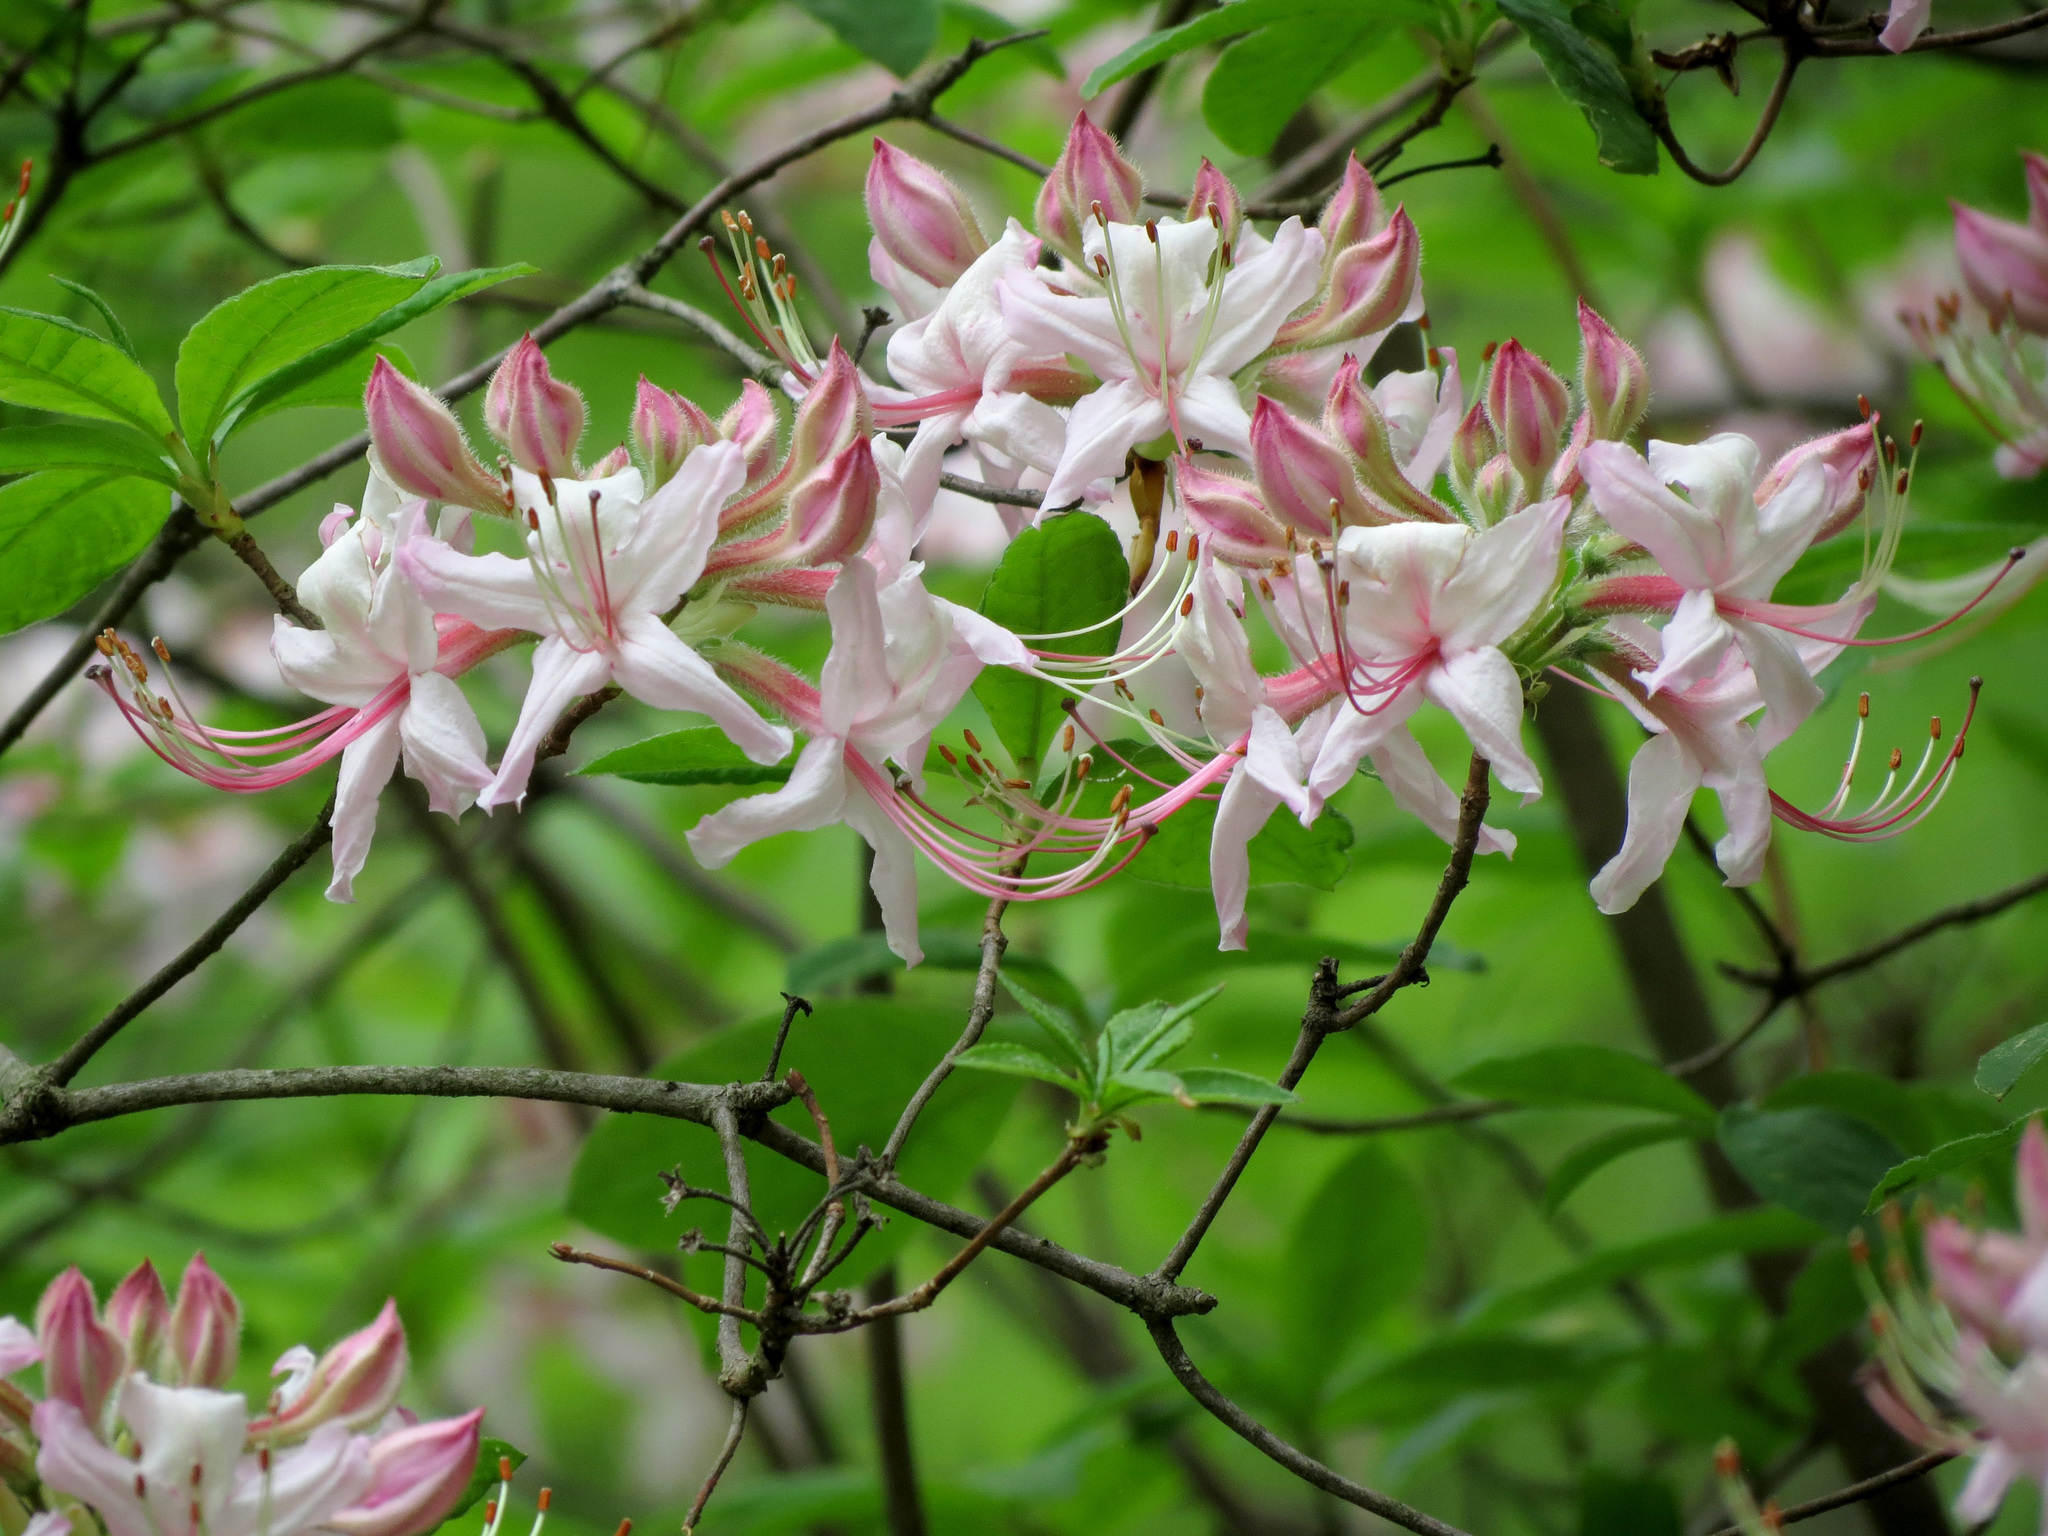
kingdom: Plantae
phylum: Tracheophyta
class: Magnoliopsida
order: Ericales
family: Ericaceae
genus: Rhododendron
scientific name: Rhododendron periclymenoides
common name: Election-pink
